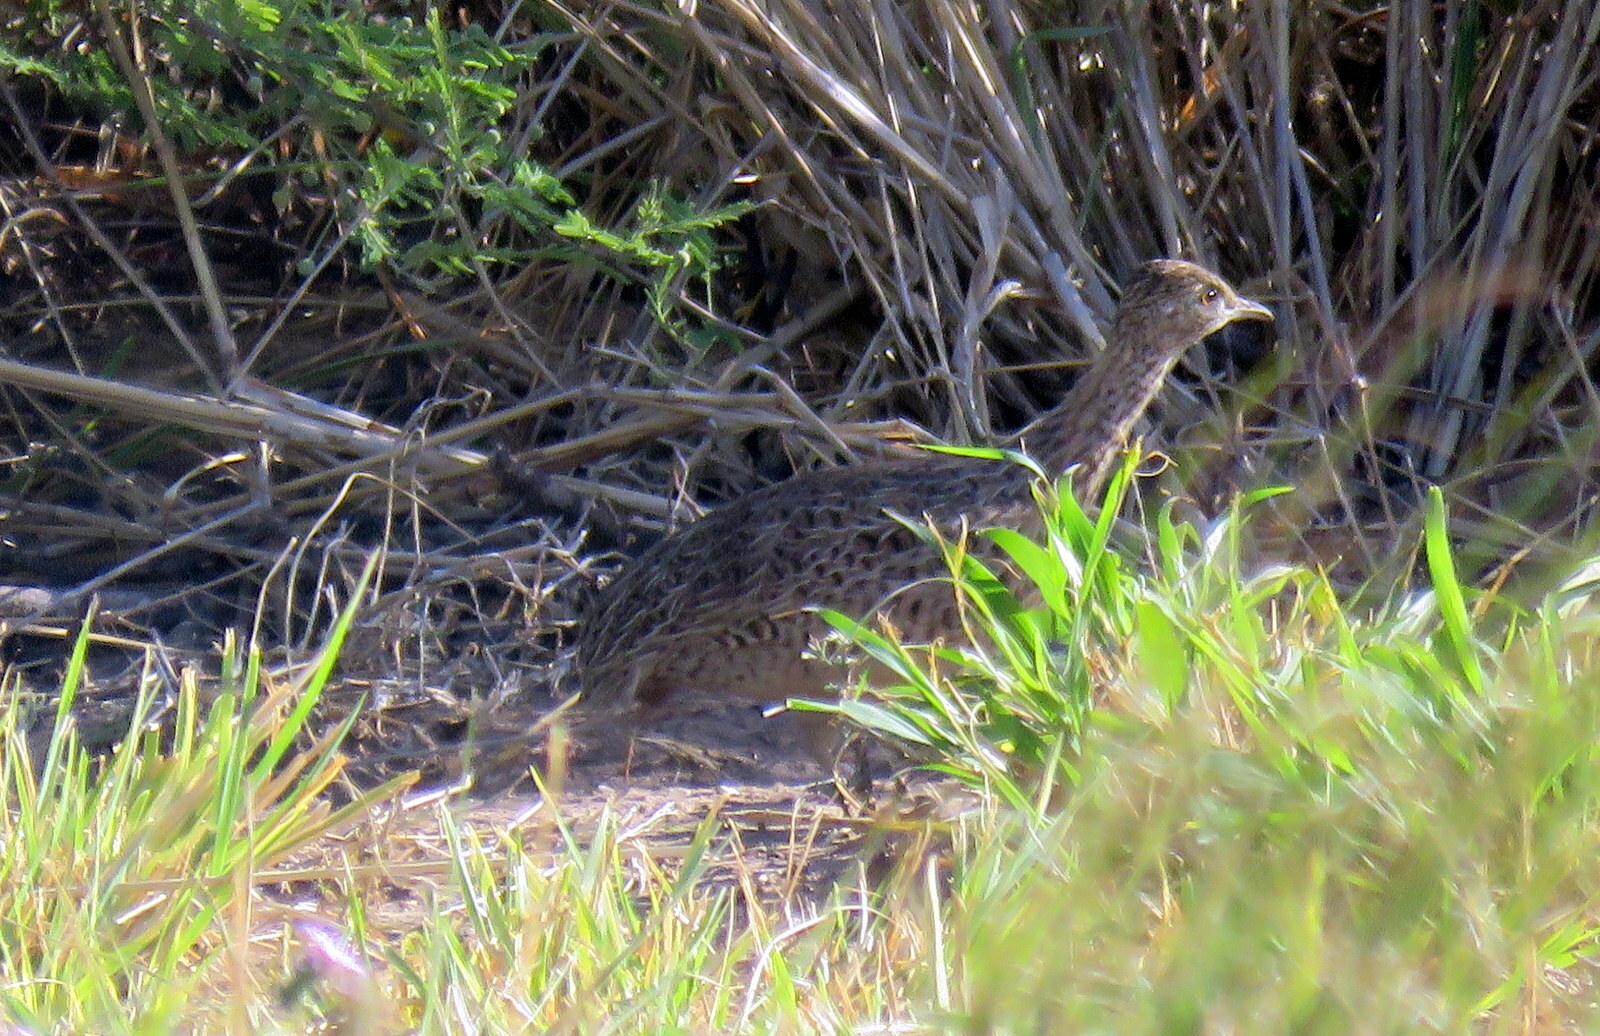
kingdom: Animalia
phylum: Chordata
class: Aves
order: Tinamiformes
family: Tinamidae
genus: Nothura
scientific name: Nothura maculosa
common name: Spotted nothura
